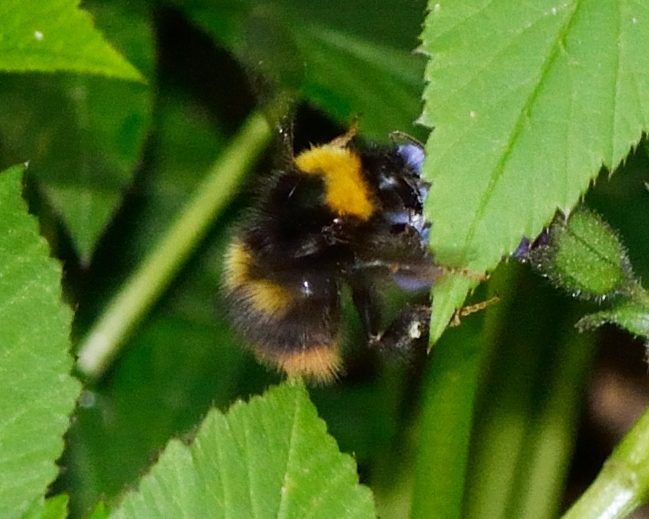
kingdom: Animalia
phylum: Arthropoda
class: Insecta
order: Hymenoptera
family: Apidae
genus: Bombus
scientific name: Bombus pratorum
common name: Early humble-bee
